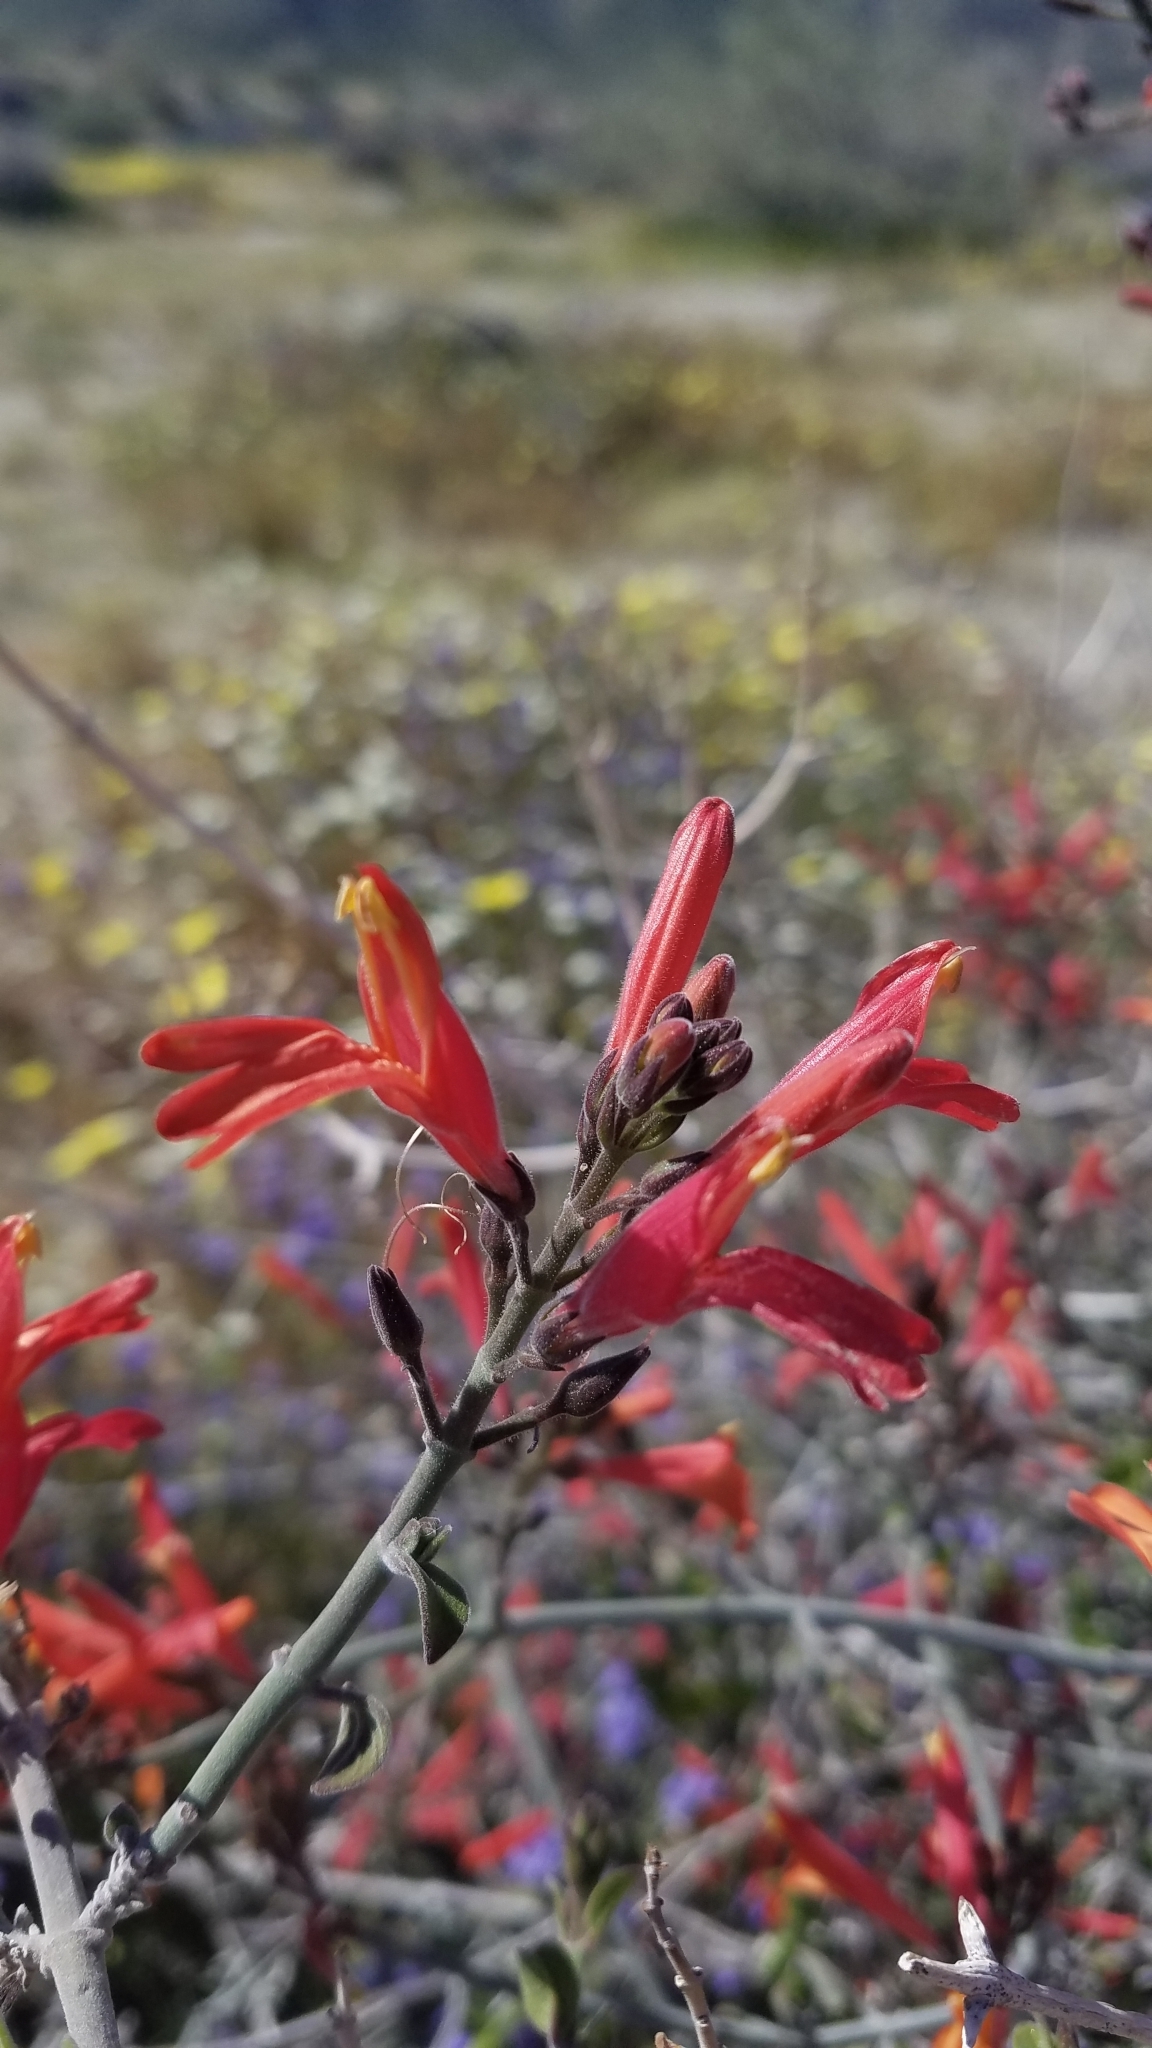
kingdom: Plantae
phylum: Tracheophyta
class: Magnoliopsida
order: Lamiales
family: Acanthaceae
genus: Justicia
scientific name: Justicia californica
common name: Chuparosa-honeysuckle
